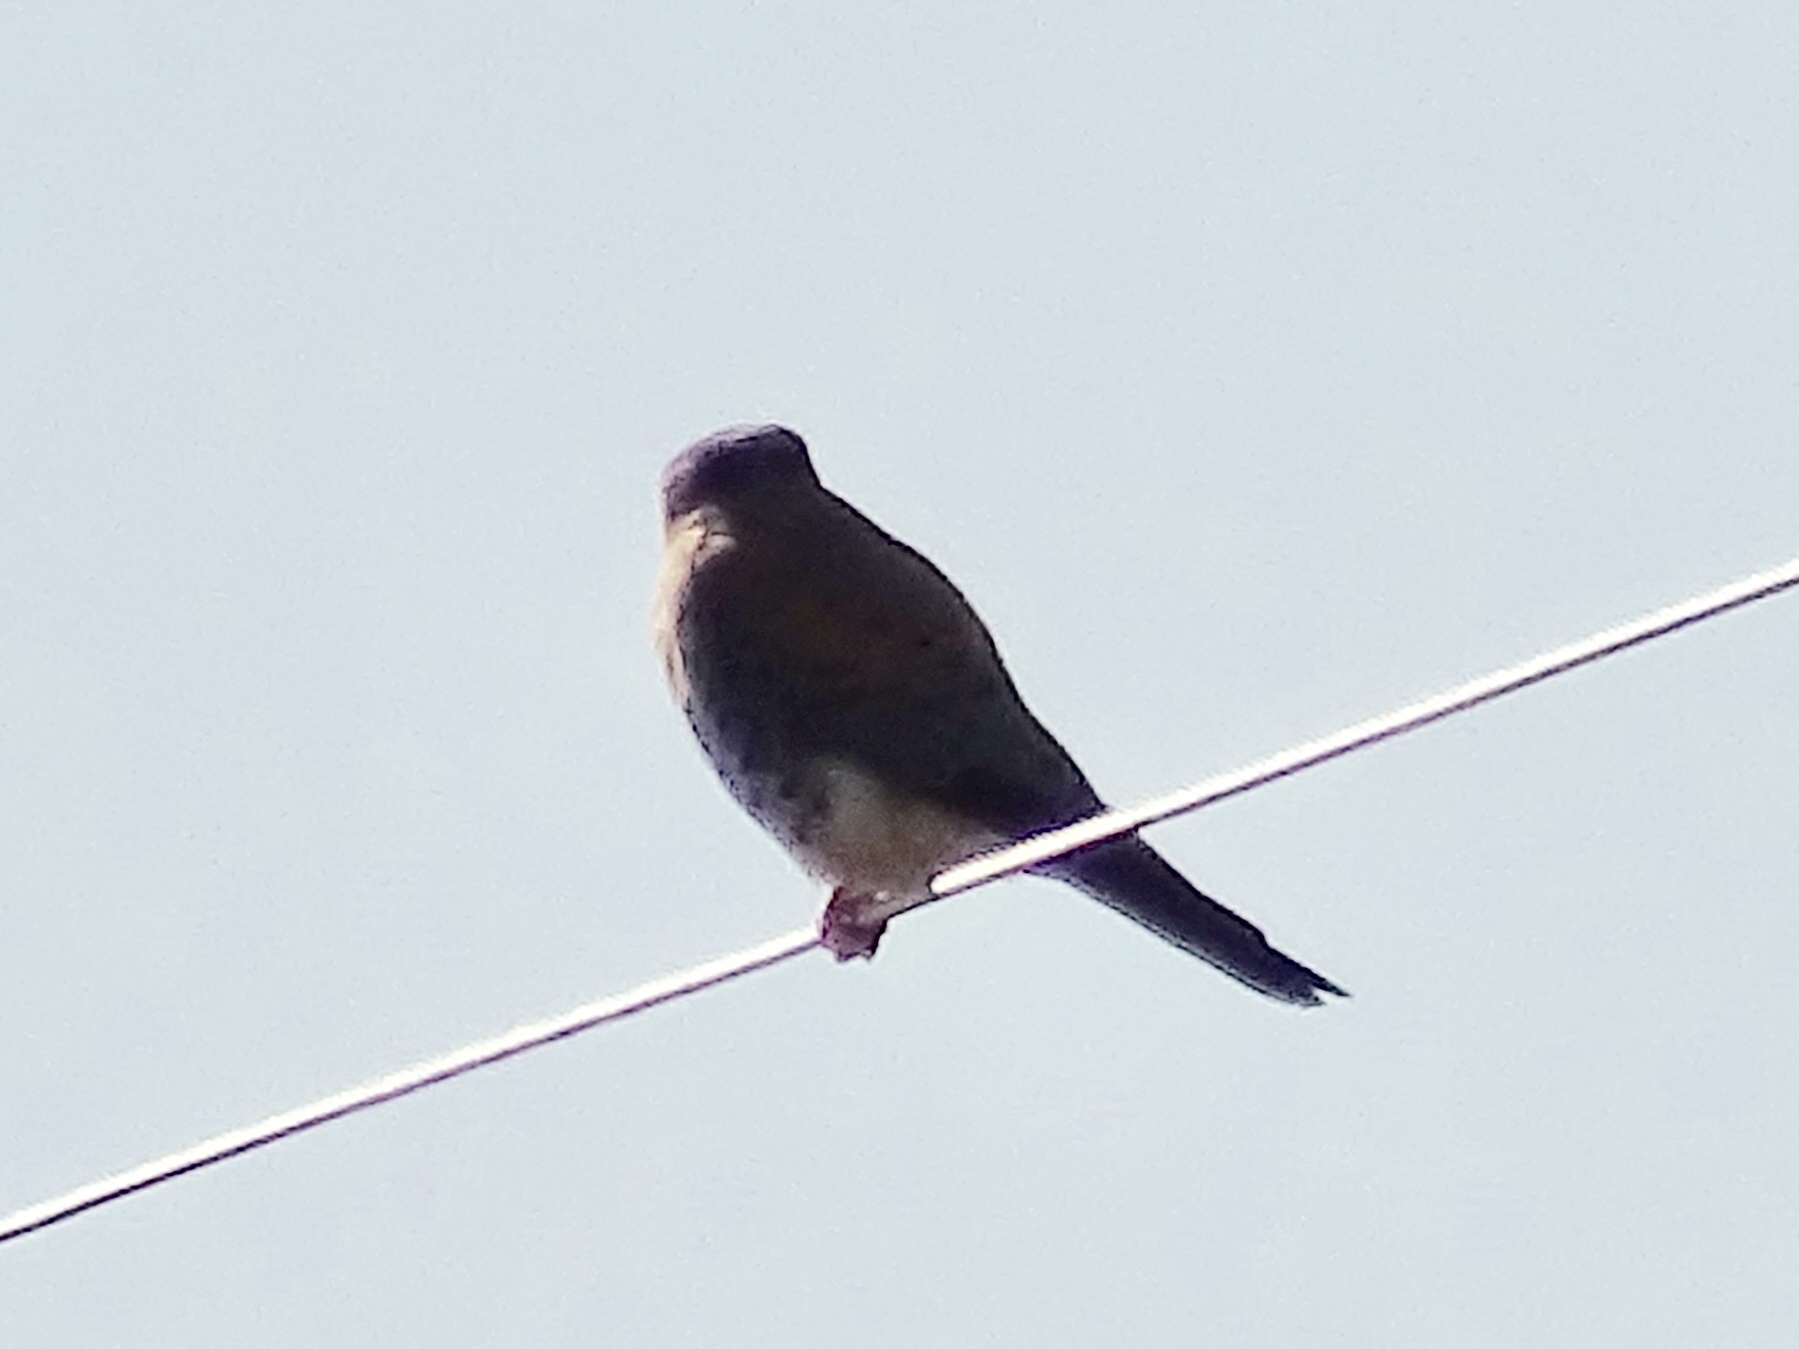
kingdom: Animalia
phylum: Chordata
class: Aves
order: Falconiformes
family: Falconidae
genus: Falco
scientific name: Falco sparverius
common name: American kestrel
